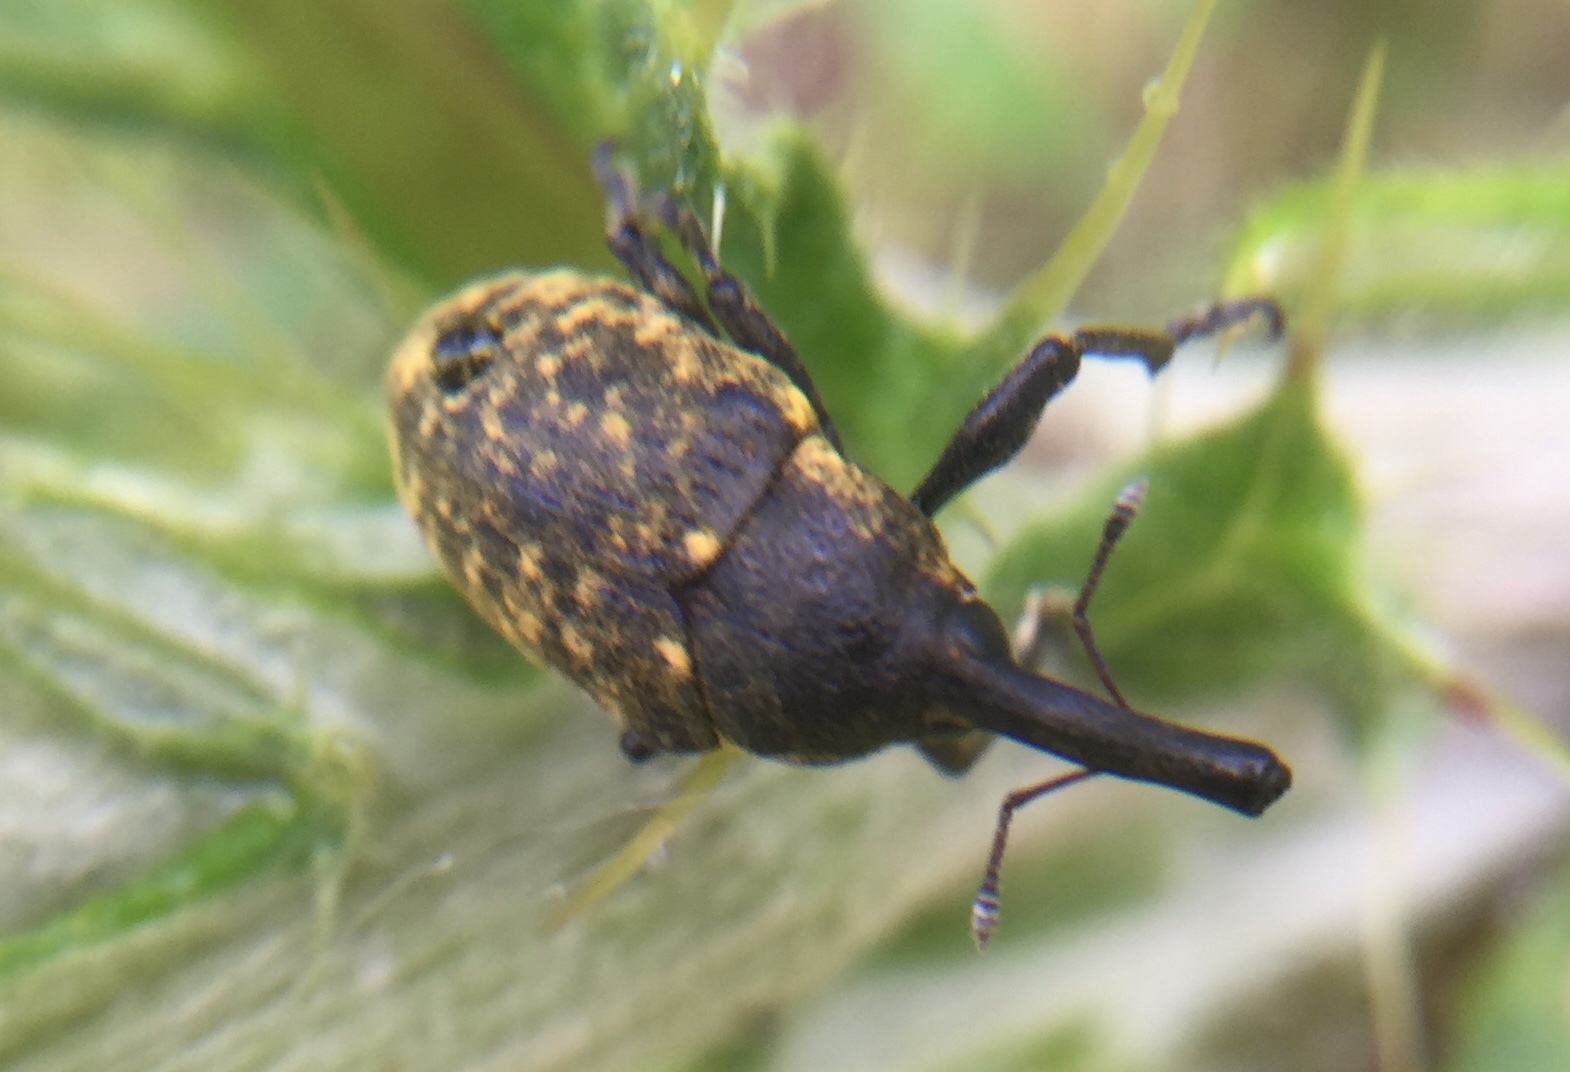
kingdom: Animalia
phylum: Arthropoda
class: Insecta
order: Coleoptera
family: Curculionidae
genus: Larinus
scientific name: Larinus sturnus
